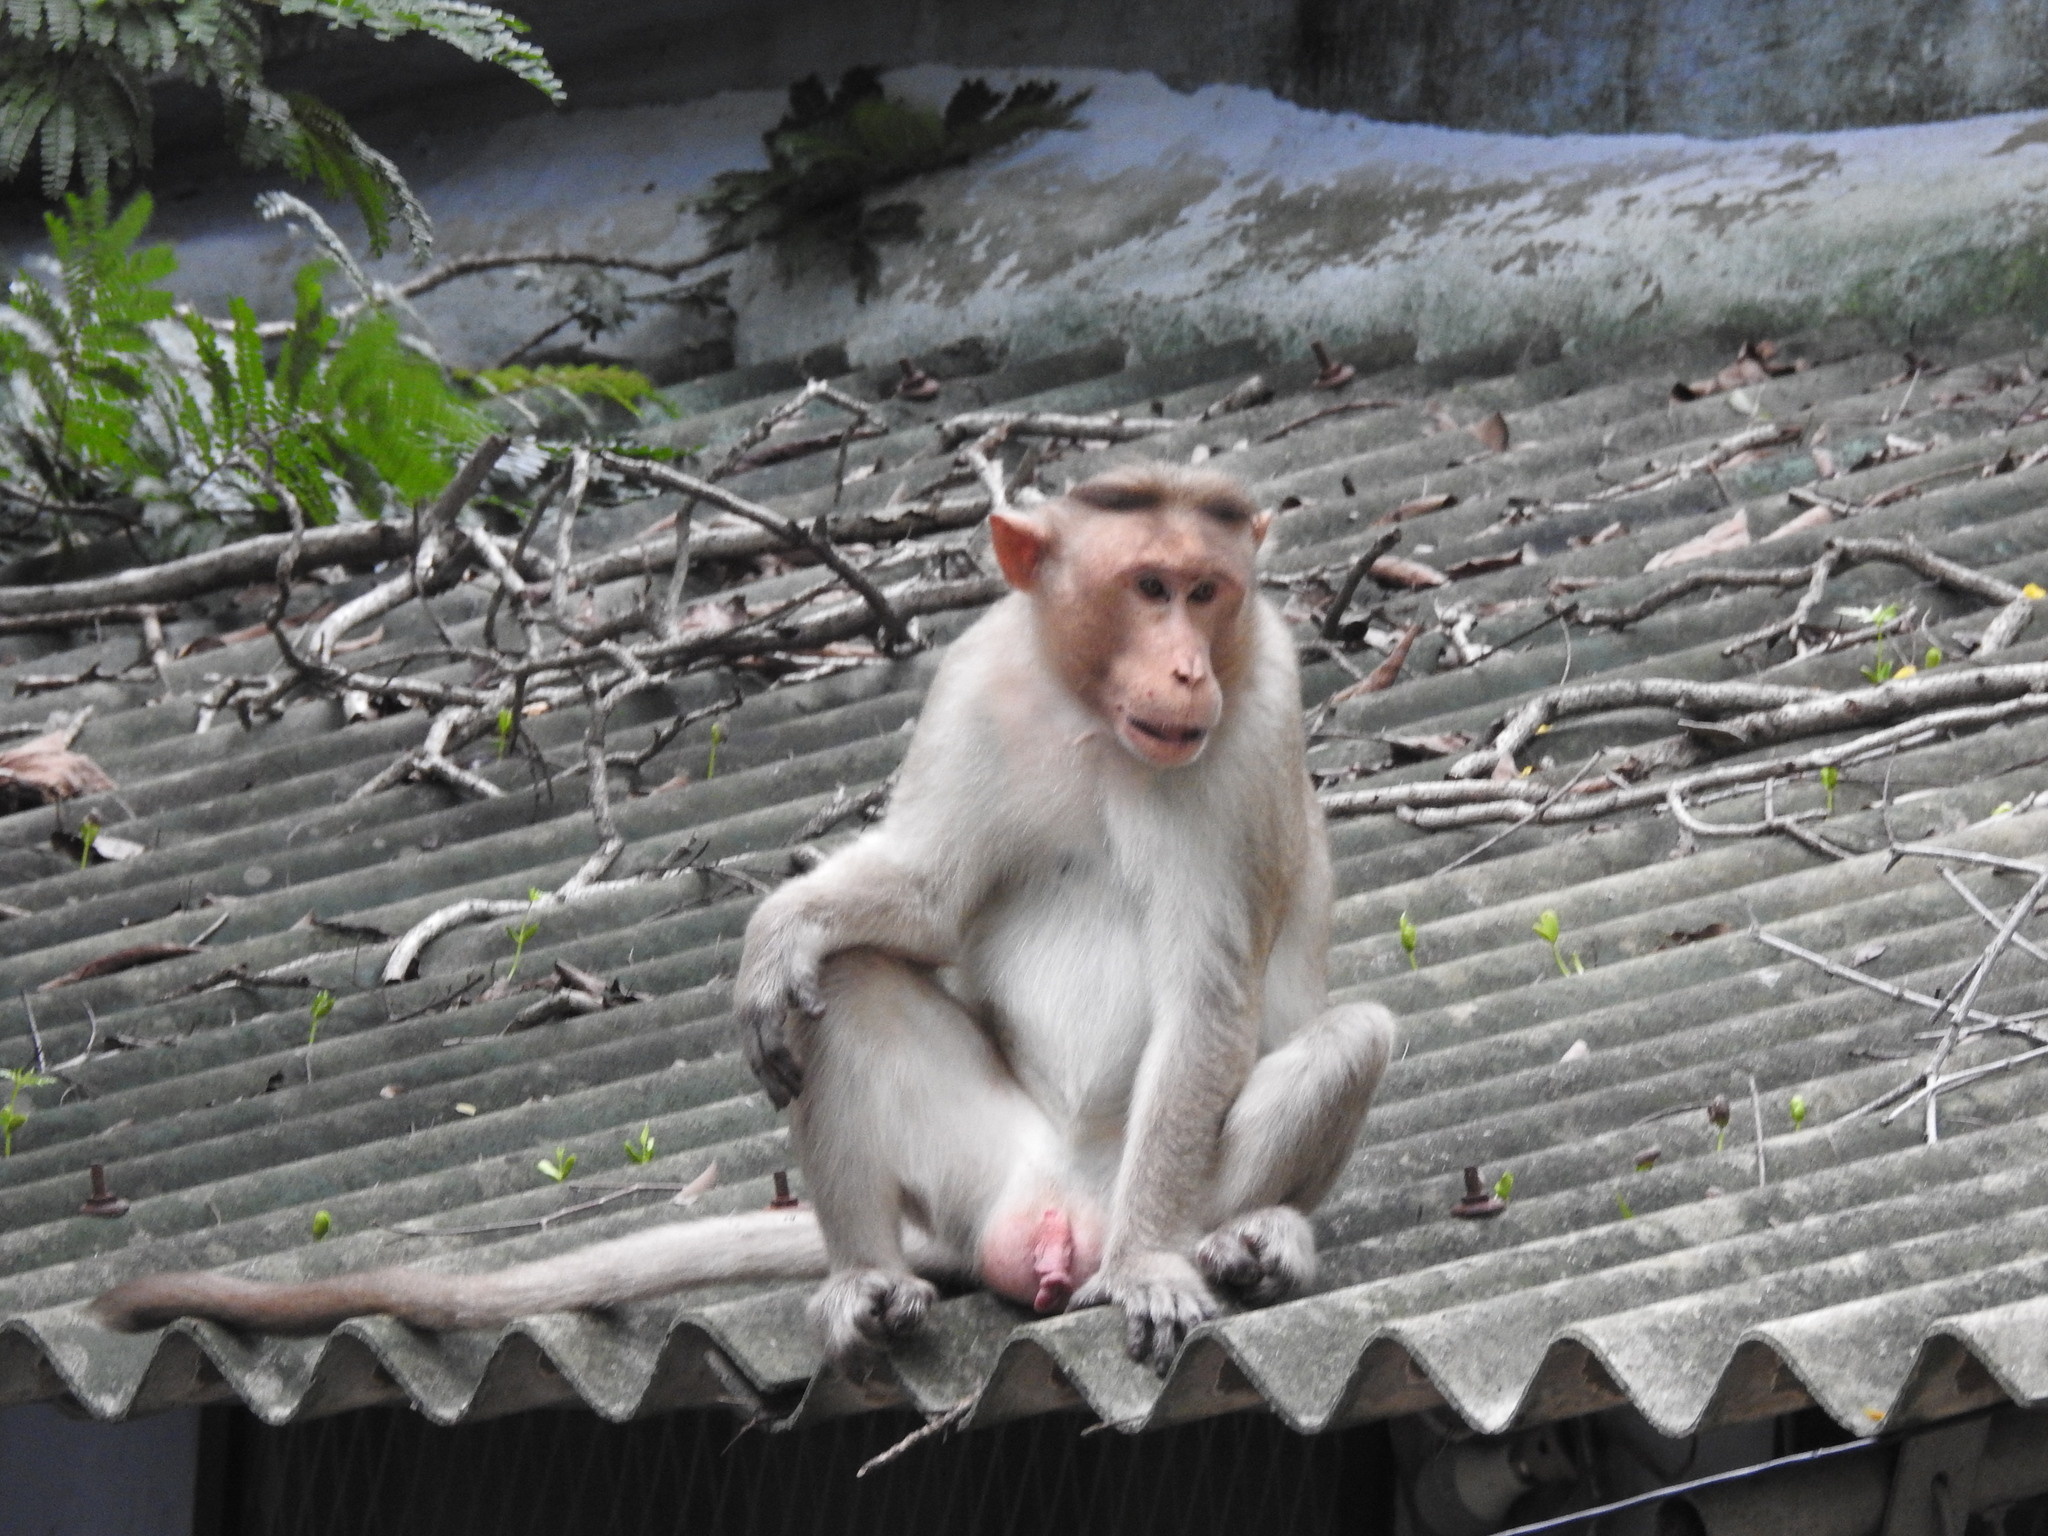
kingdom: Animalia
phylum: Chordata
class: Mammalia
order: Primates
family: Cercopithecidae
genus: Macaca
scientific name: Macaca radiata
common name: Bonnet macaque
